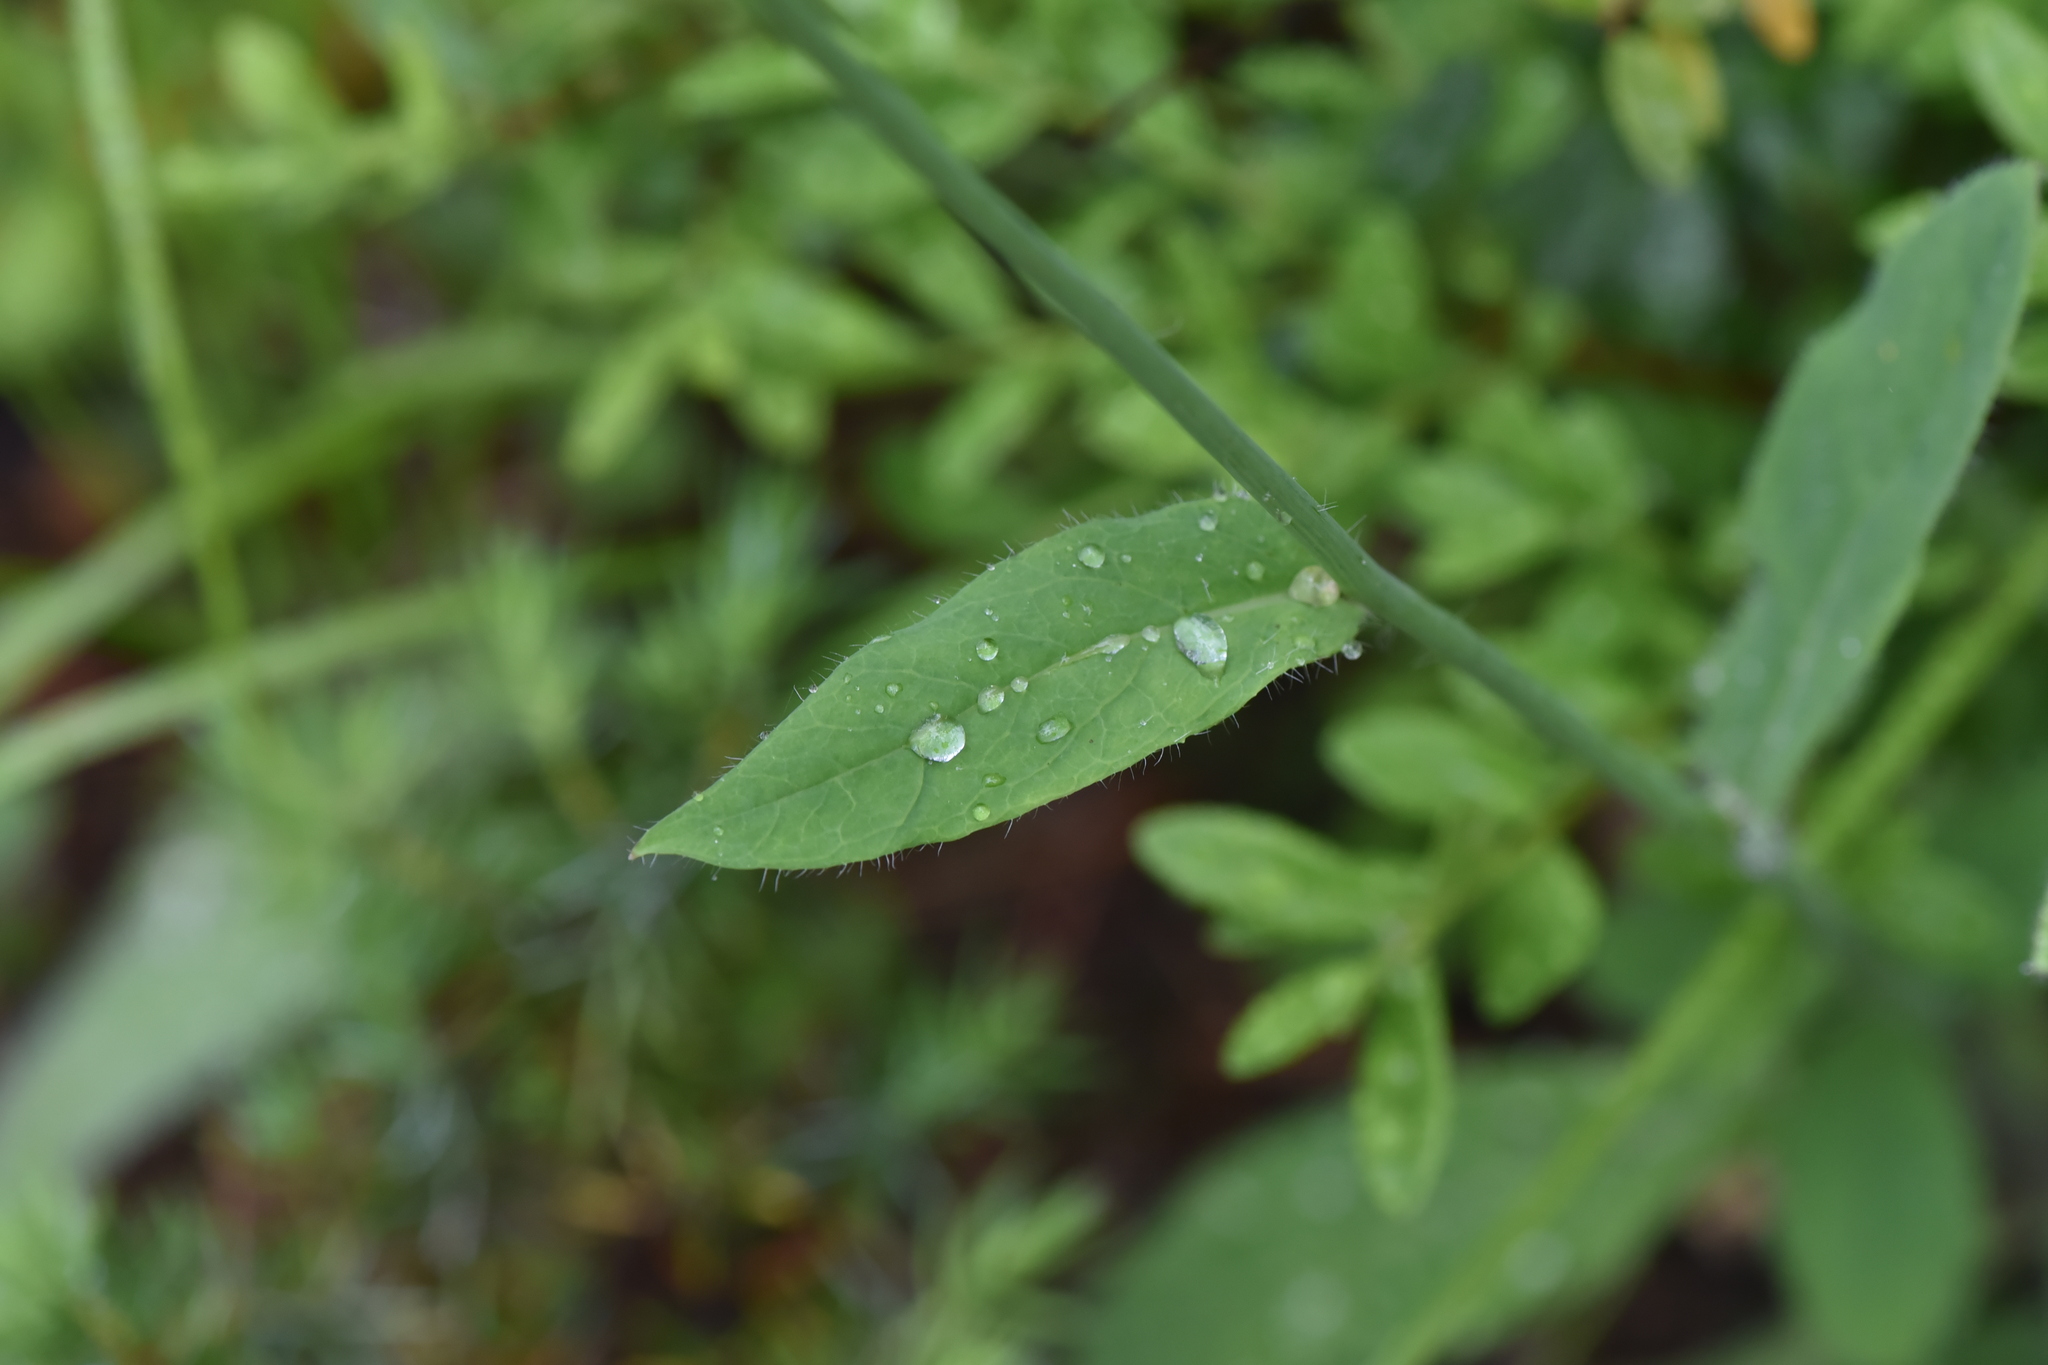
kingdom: Plantae
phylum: Tracheophyta
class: Magnoliopsida
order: Asterales
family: Asteraceae
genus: Hieracium
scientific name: Hieracium albiflorum
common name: White hawkweed
